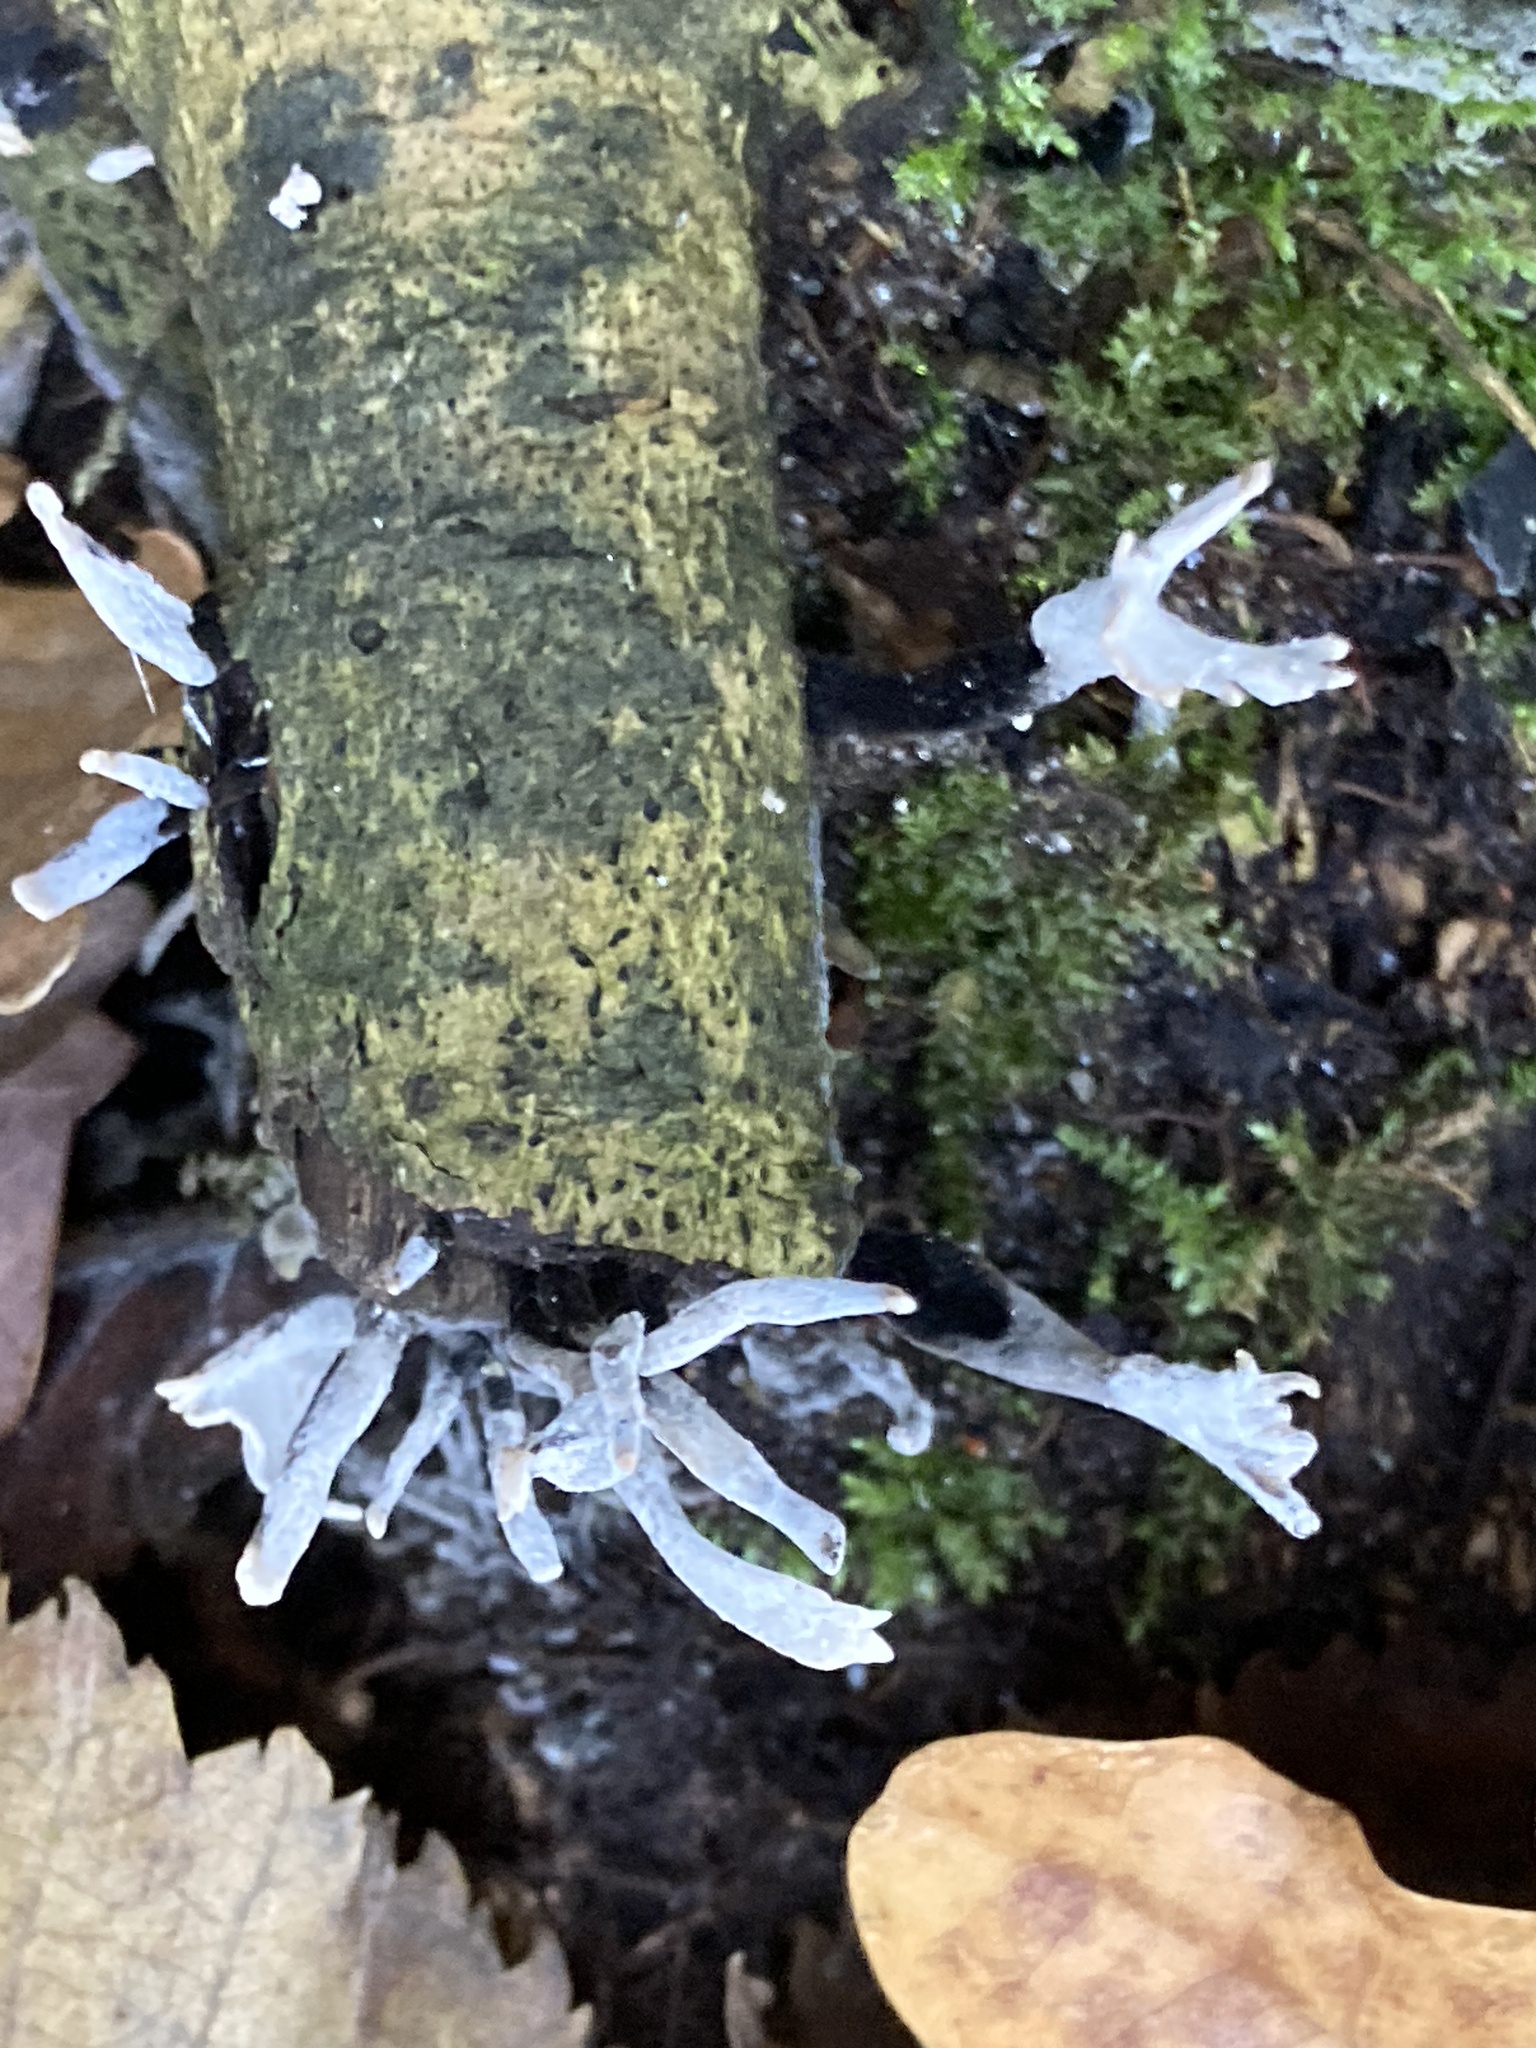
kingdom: Fungi
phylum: Ascomycota
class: Sordariomycetes
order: Xylariales
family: Xylariaceae
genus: Xylaria
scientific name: Xylaria hypoxylon
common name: Candle-snuff fungus
